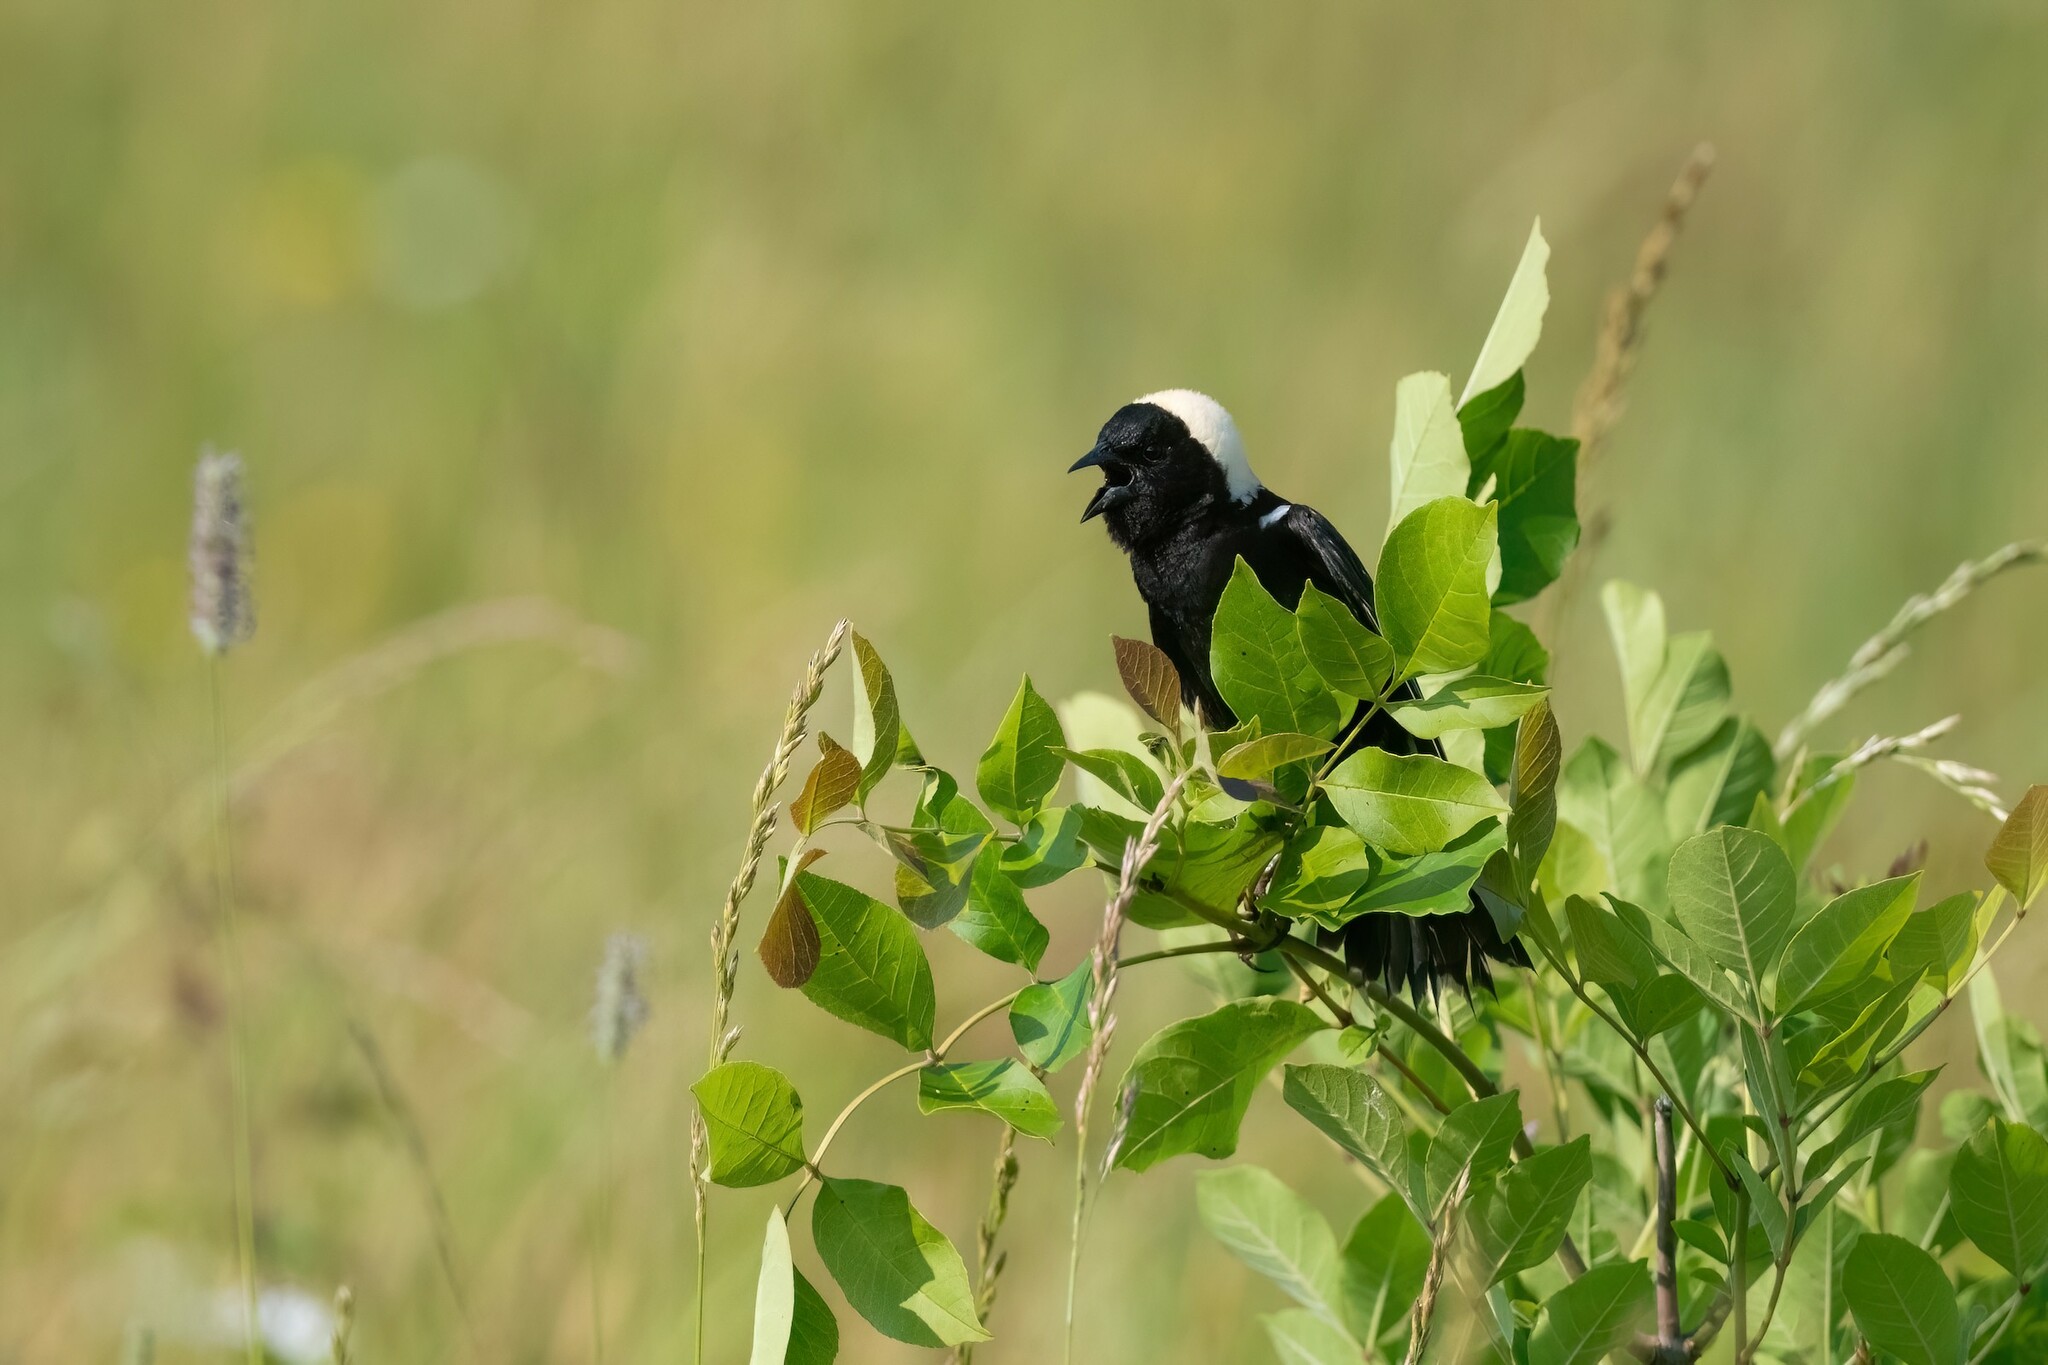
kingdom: Animalia
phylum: Chordata
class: Aves
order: Passeriformes
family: Icteridae
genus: Dolichonyx
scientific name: Dolichonyx oryzivorus
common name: Bobolink
